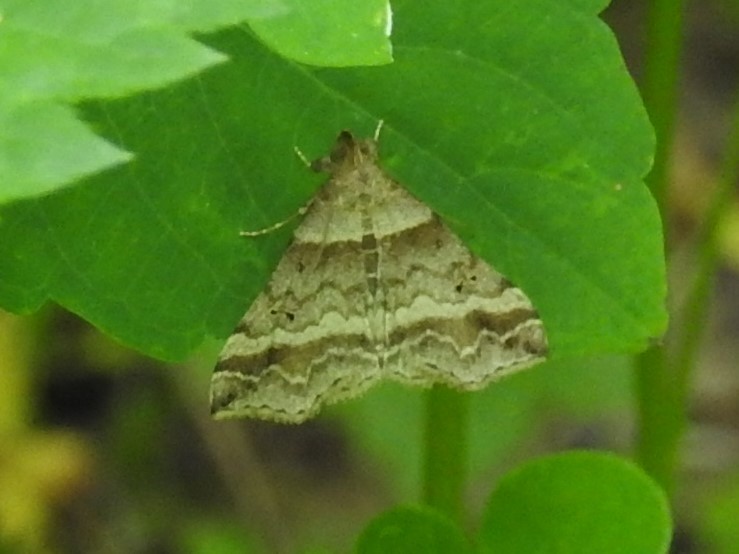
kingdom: Animalia
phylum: Arthropoda
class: Insecta
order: Lepidoptera
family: Erebidae
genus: Phaeolita
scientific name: Phaeolita pyramusalis
